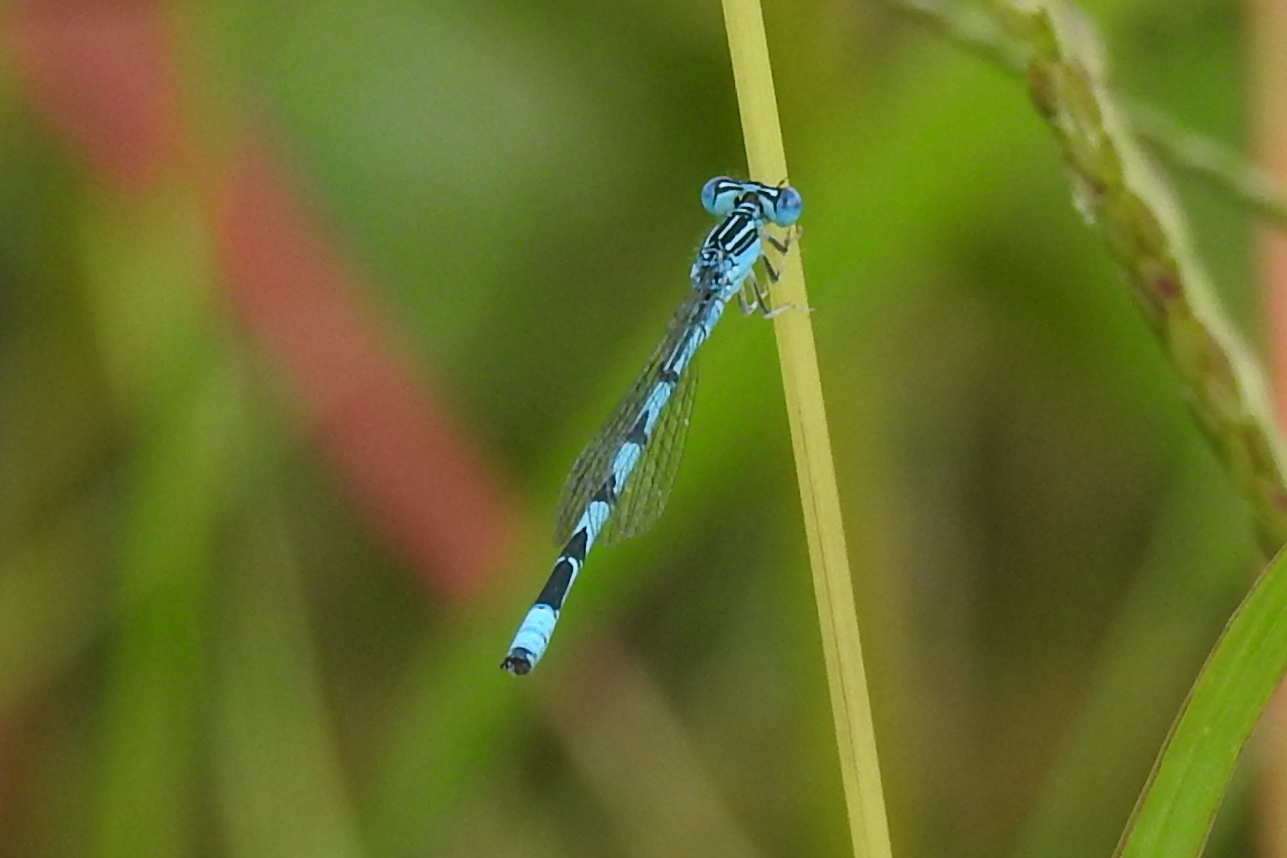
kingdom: Animalia
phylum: Arthropoda
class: Insecta
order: Odonata
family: Coenagrionidae
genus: Enallagma
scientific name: Enallagma basidens
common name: Double-striped bluet
